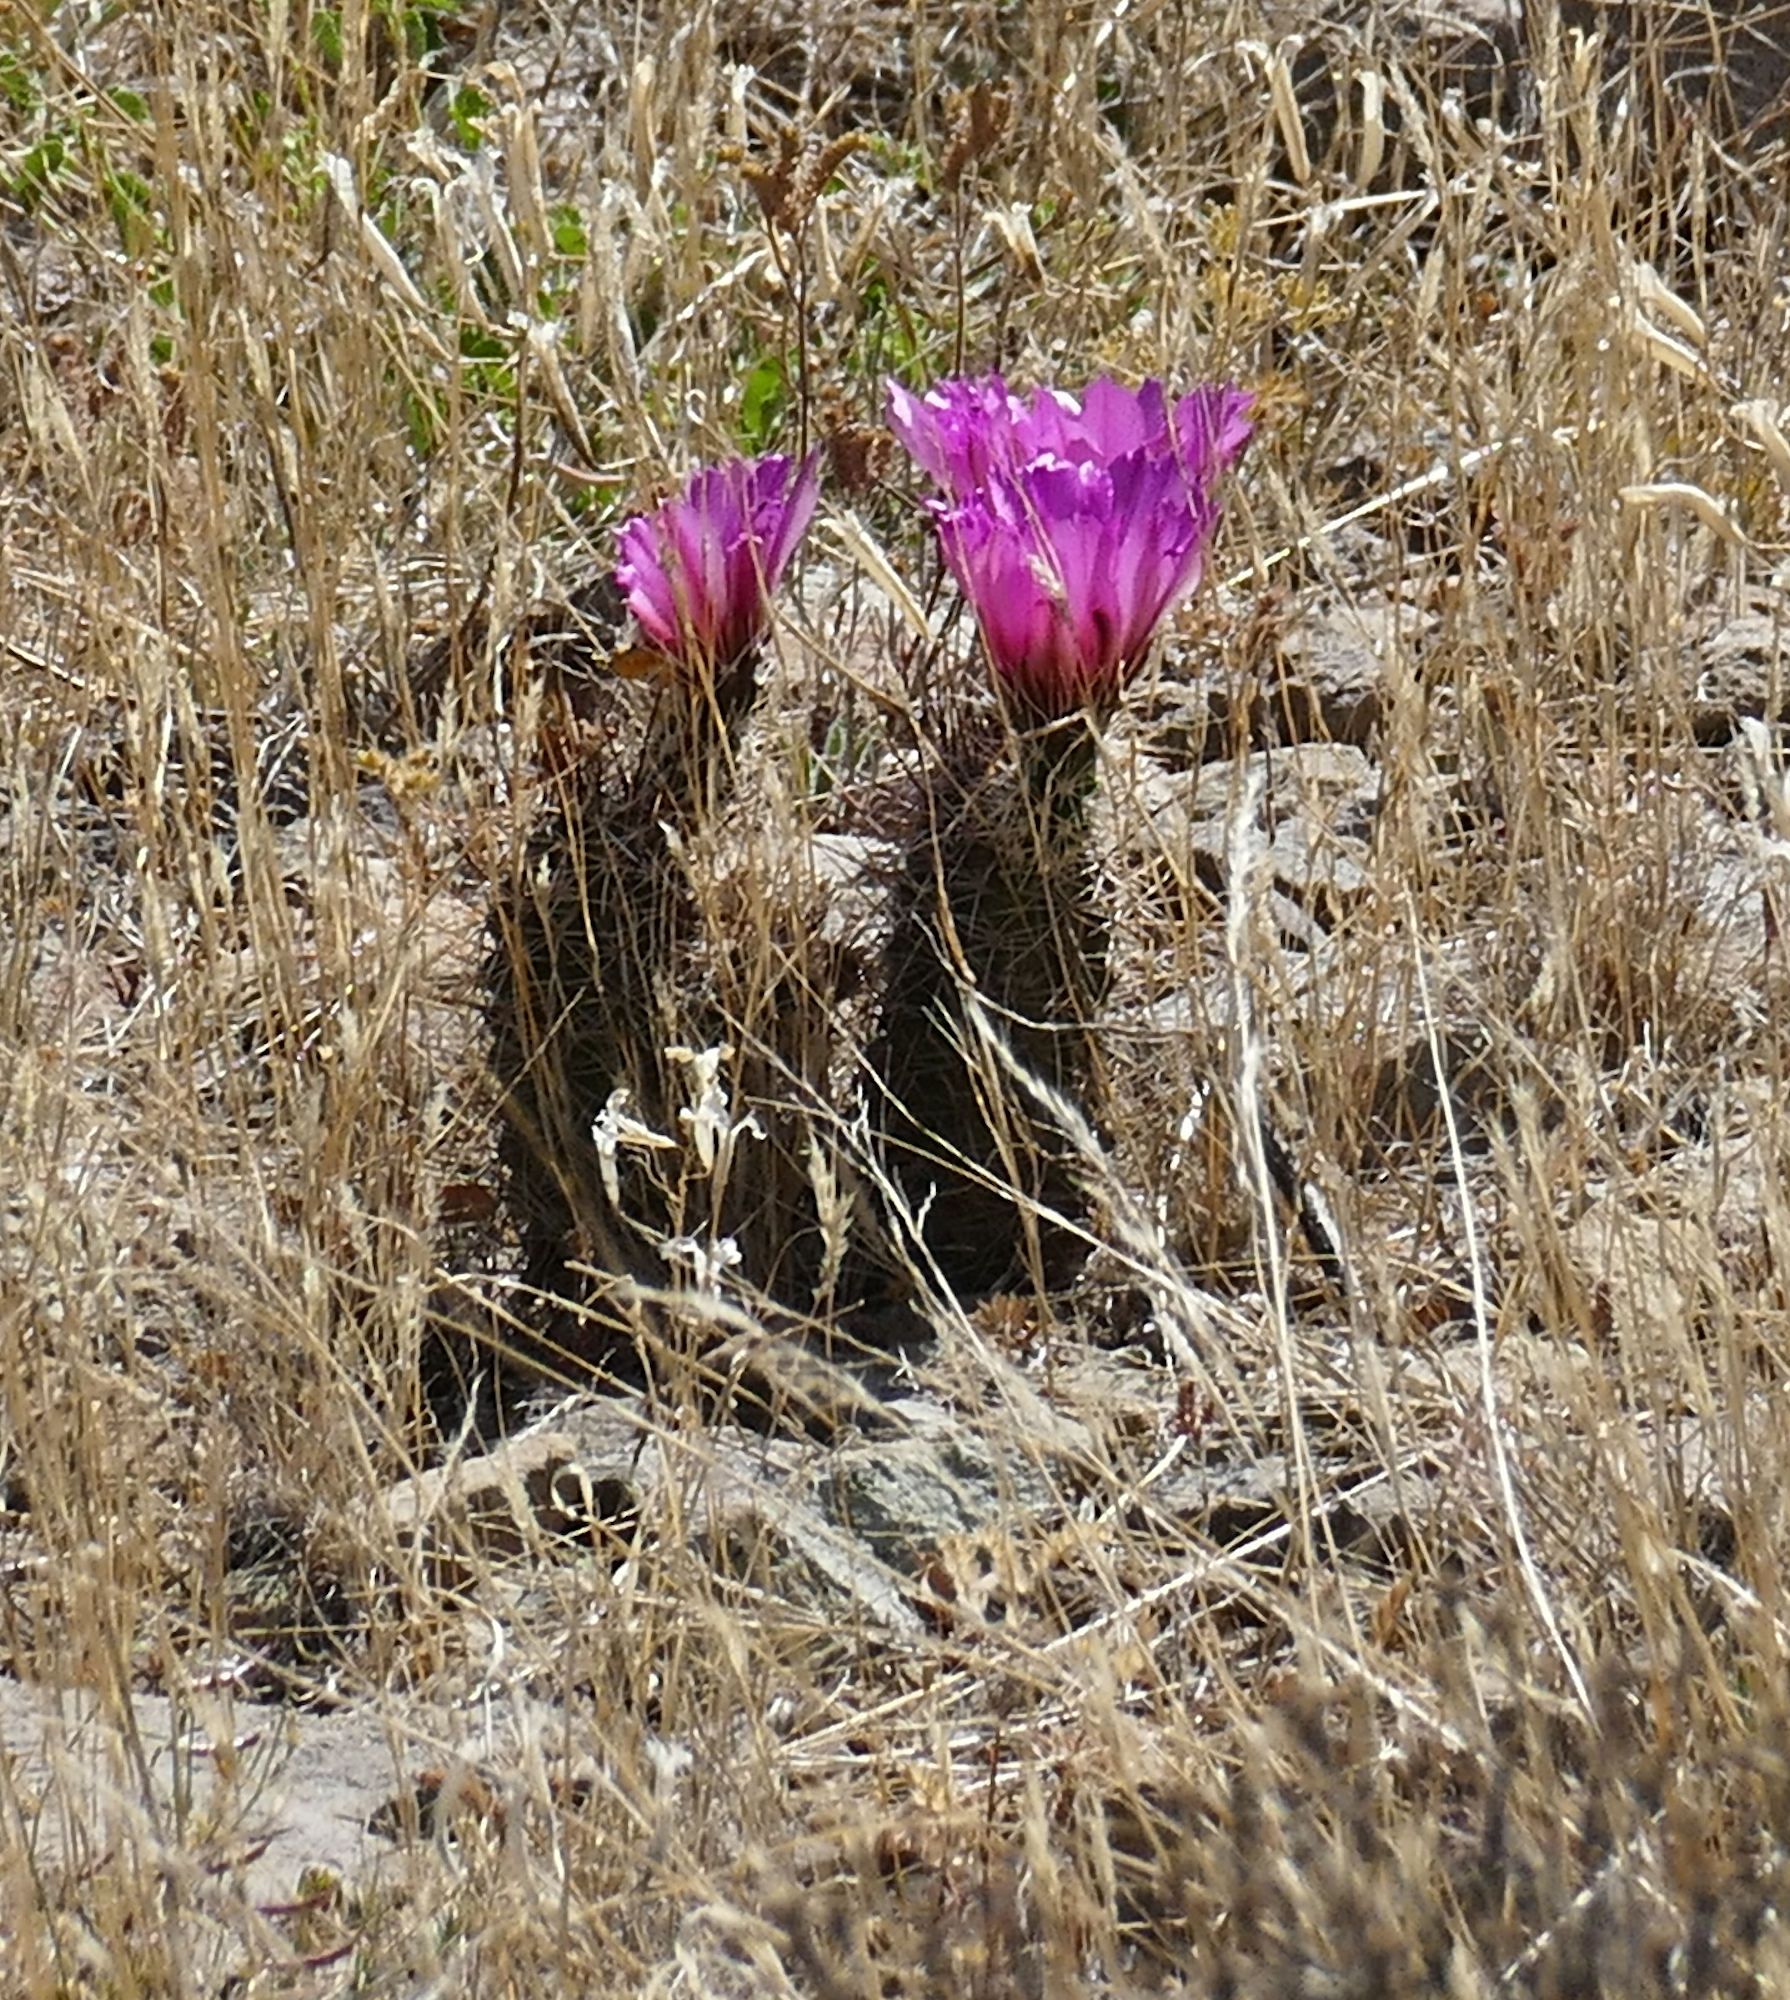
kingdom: Plantae
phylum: Tracheophyta
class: Magnoliopsida
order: Caryophyllales
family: Cactaceae
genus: Echinocereus
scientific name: Echinocereus fendleri
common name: Fendler's hedgehog cactus
